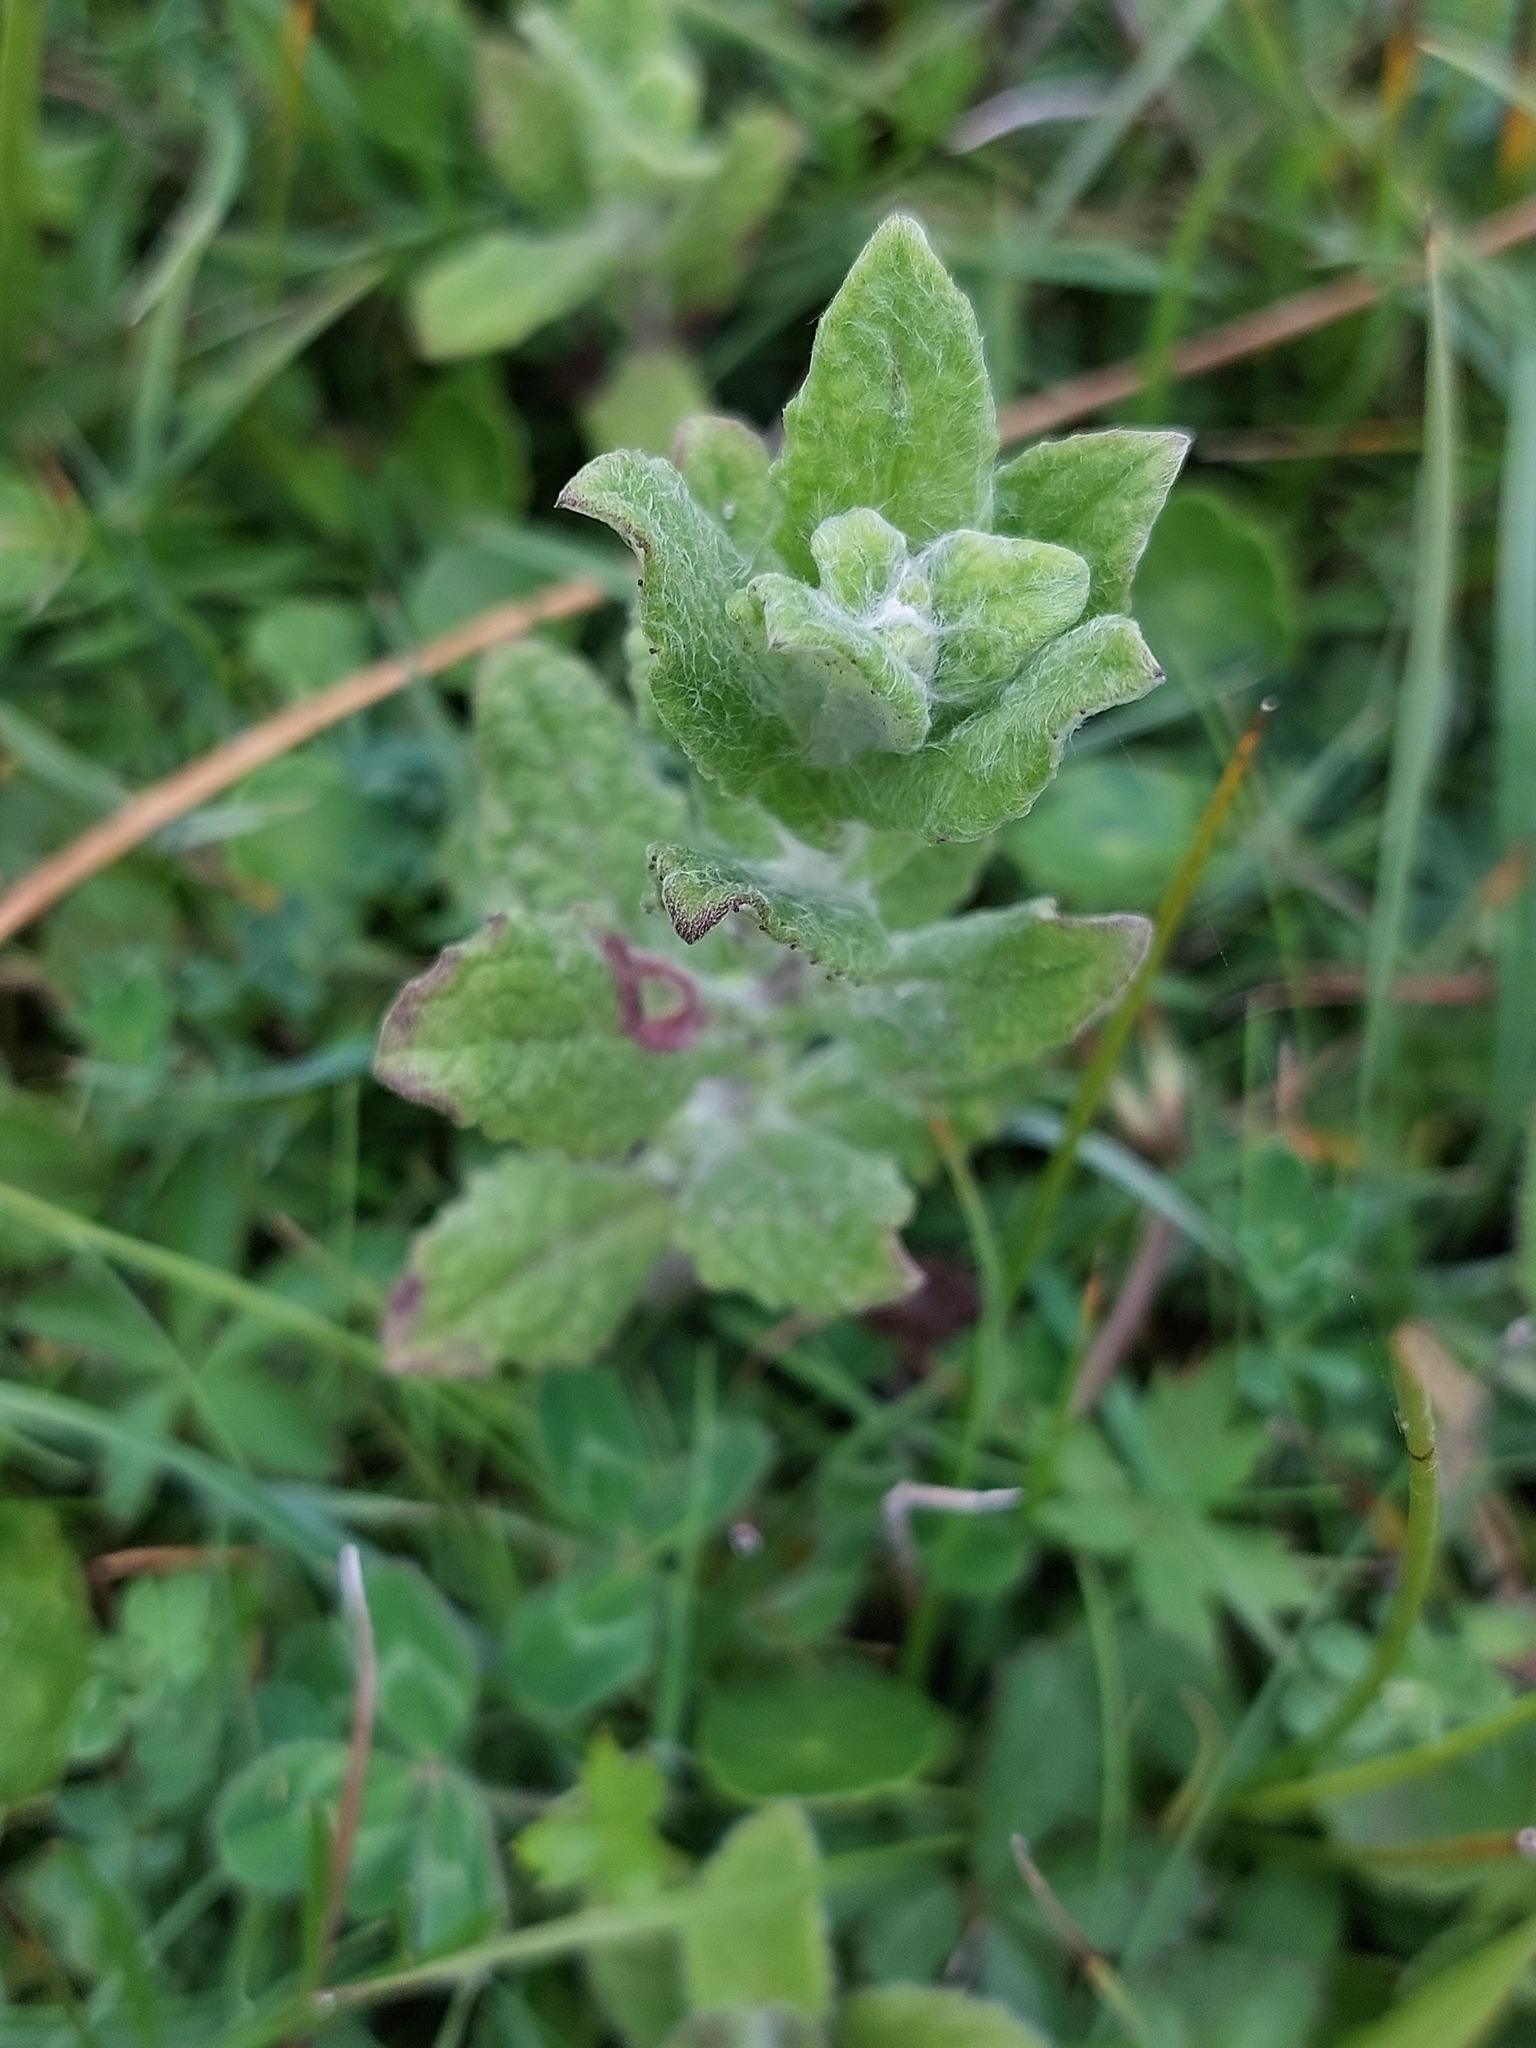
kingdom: Plantae
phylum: Tracheophyta
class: Magnoliopsida
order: Asterales
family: Asteraceae
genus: Pulicaria
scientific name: Pulicaria dysenterica
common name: Common fleabane
